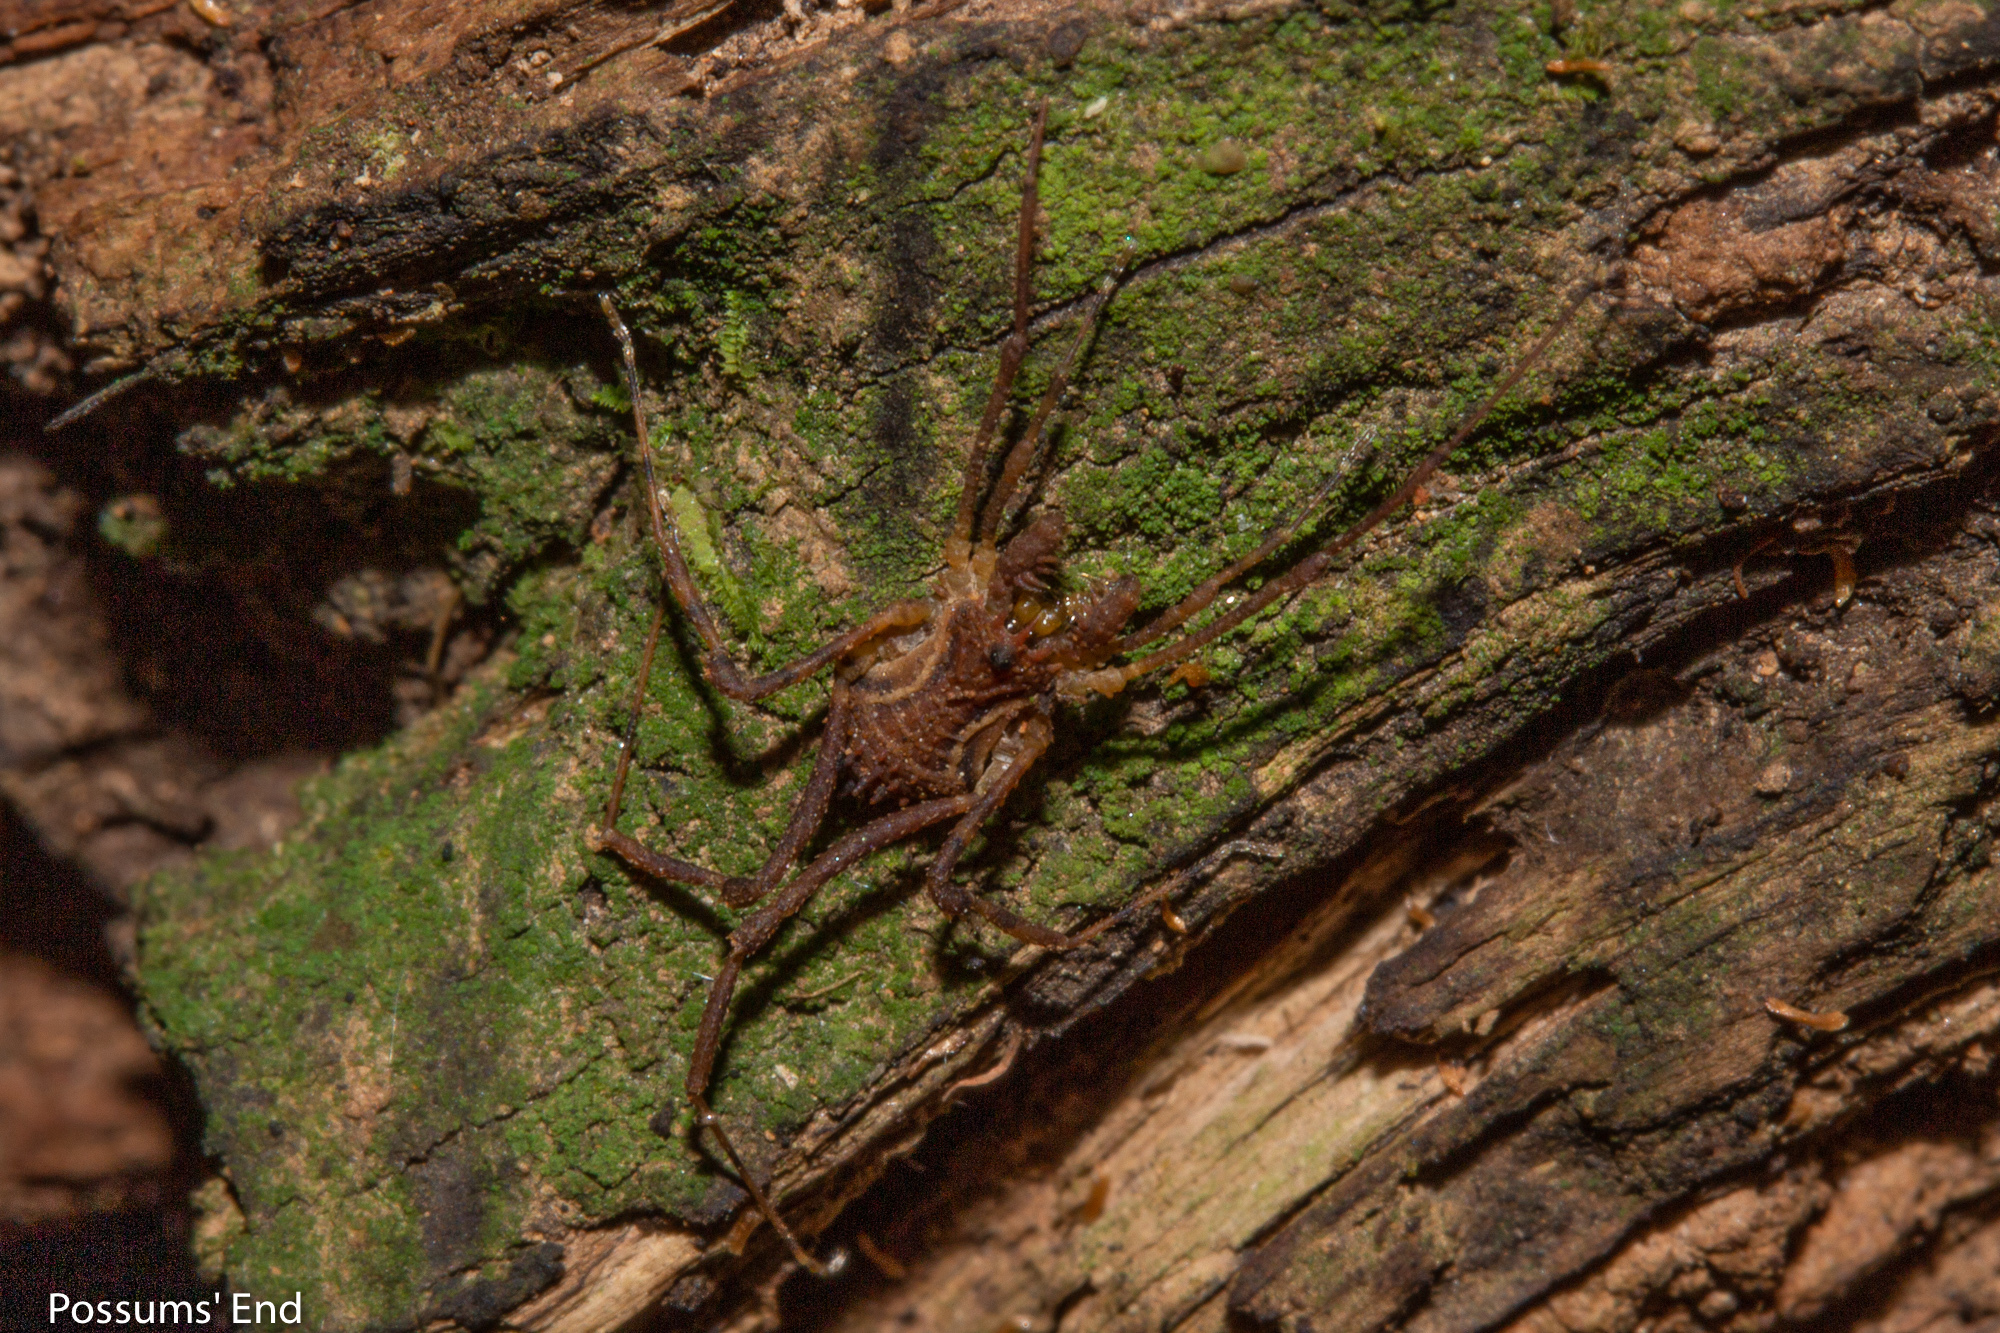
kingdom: Animalia
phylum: Arthropoda
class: Arachnida
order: Opiliones
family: Triaenonychidae
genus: Algidia
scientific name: Algidia marplesi
